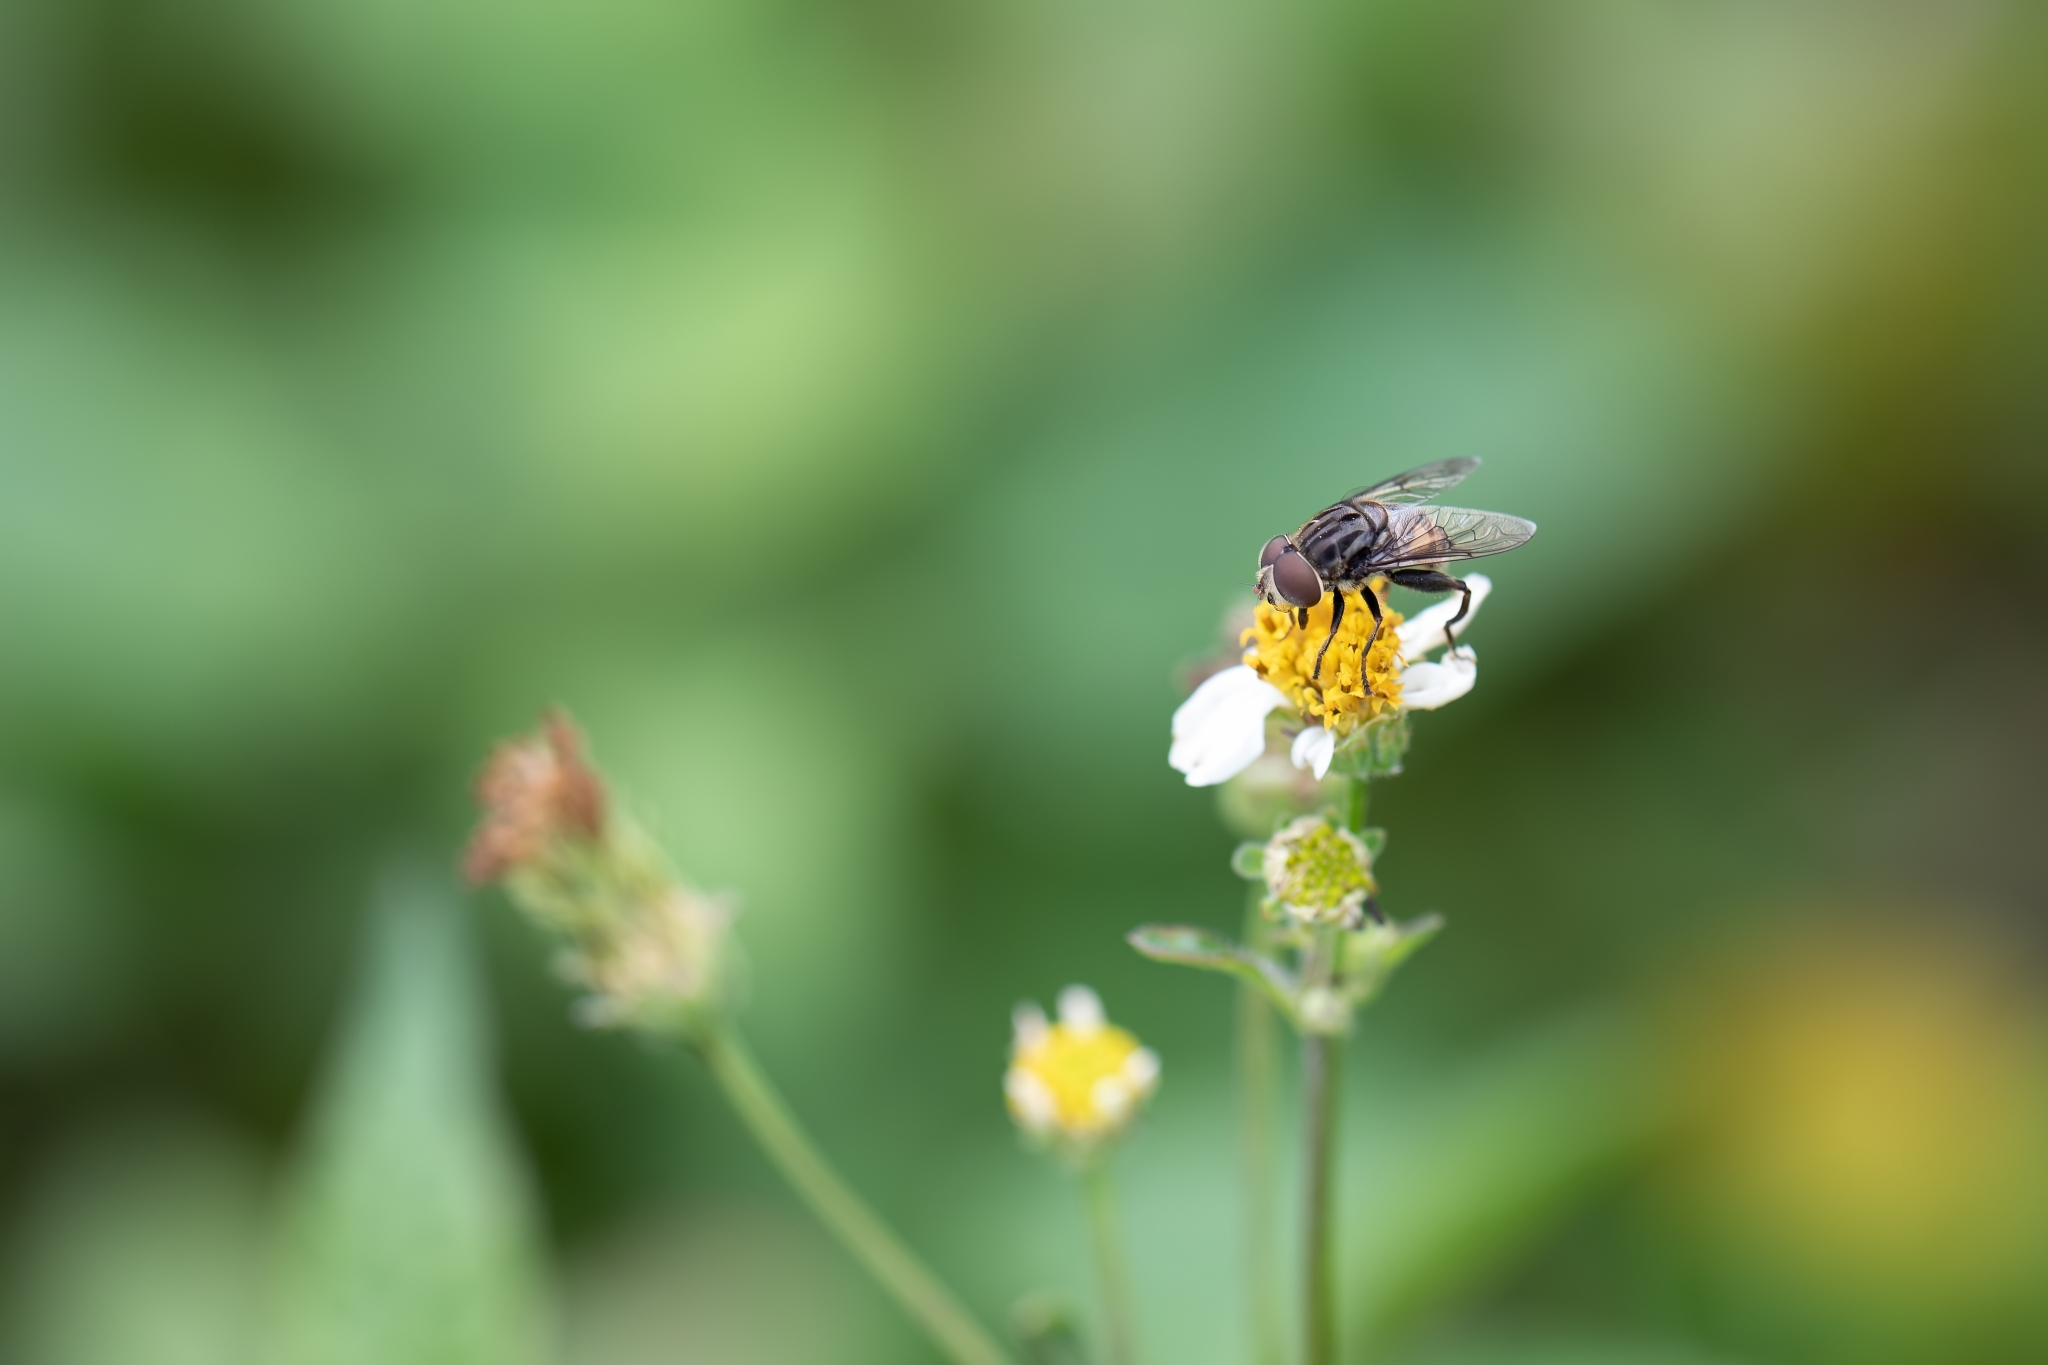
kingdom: Animalia
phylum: Arthropoda
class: Insecta
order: Diptera
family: Syrphidae
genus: Palpada
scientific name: Palpada furcata
